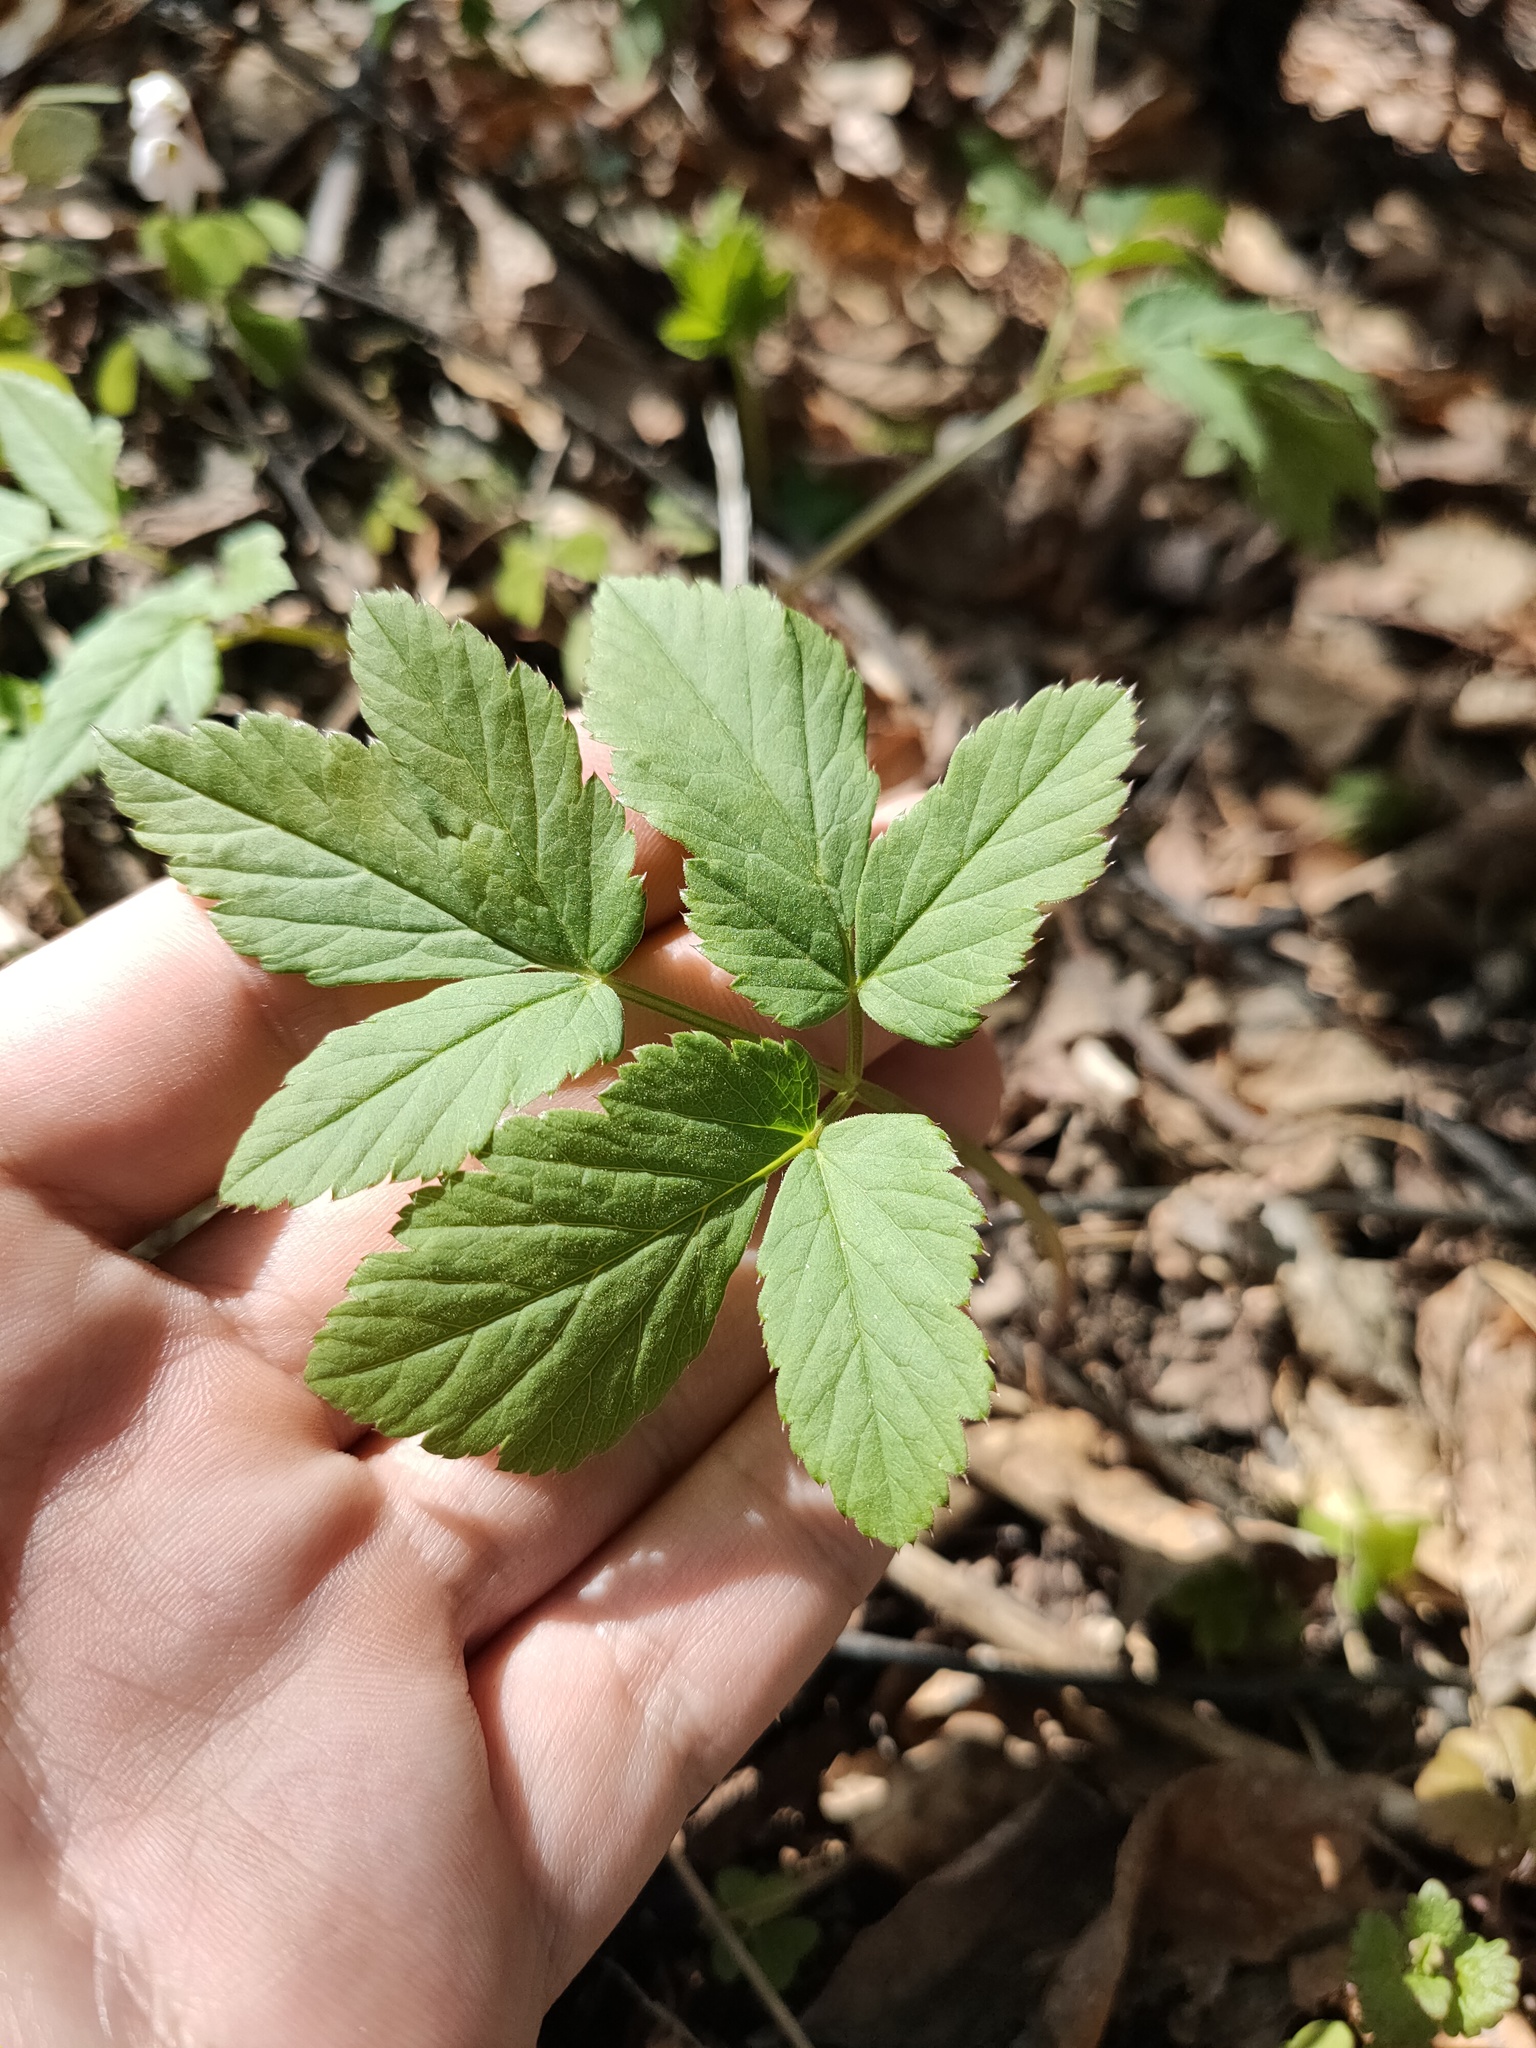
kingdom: Plantae
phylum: Tracheophyta
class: Magnoliopsida
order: Apiales
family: Apiaceae
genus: Aegopodium
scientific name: Aegopodium podagraria
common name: Ground-elder
